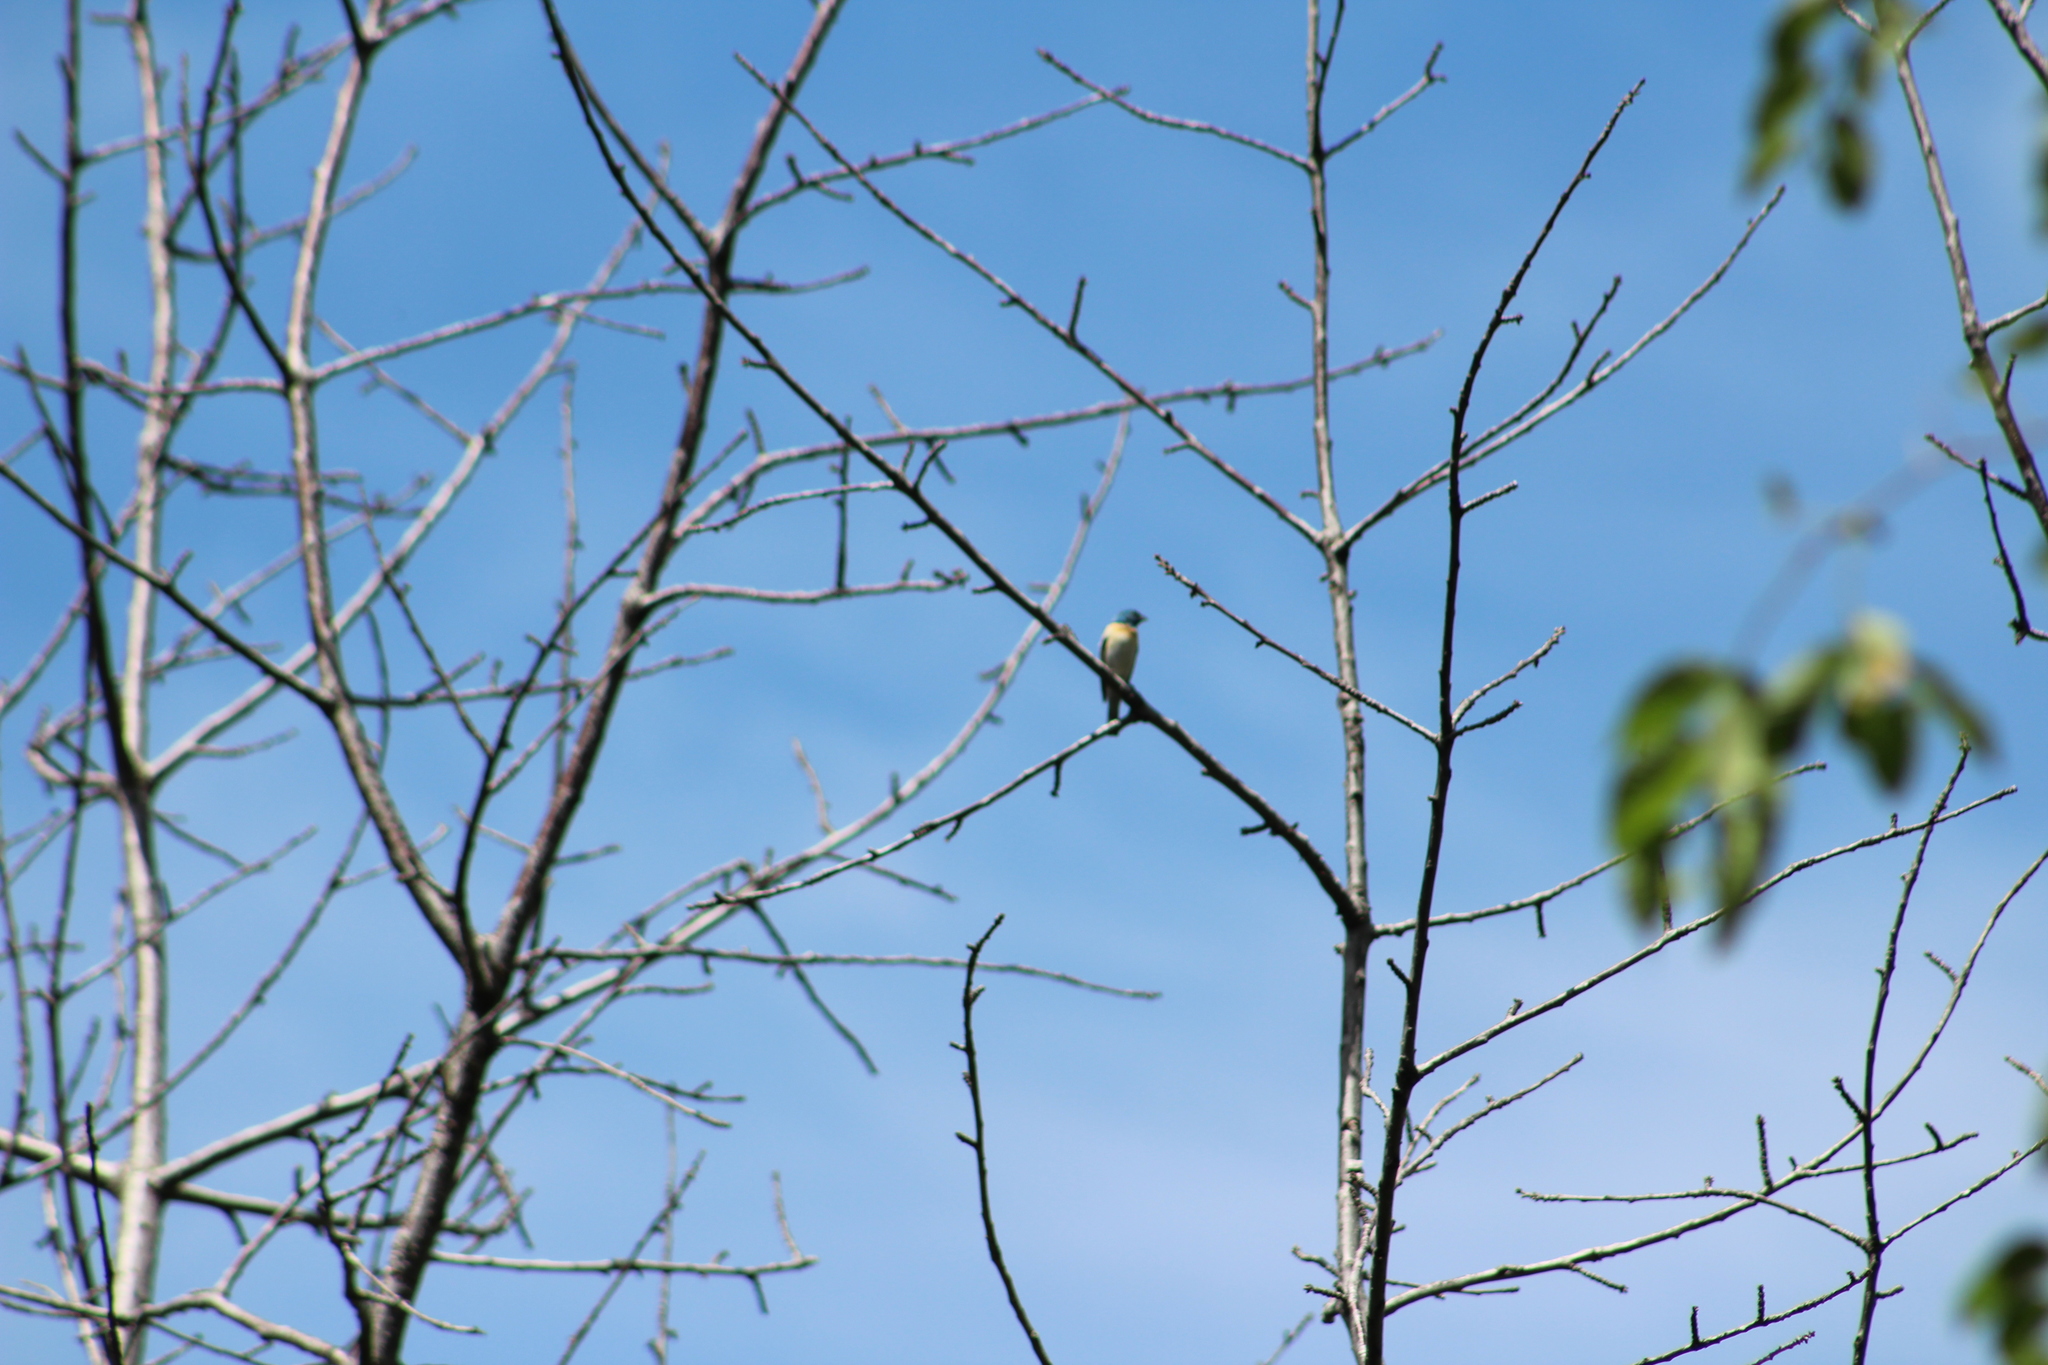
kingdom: Animalia
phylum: Chordata
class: Aves
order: Passeriformes
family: Cardinalidae
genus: Passerina
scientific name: Passerina amoena
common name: Lazuli bunting
